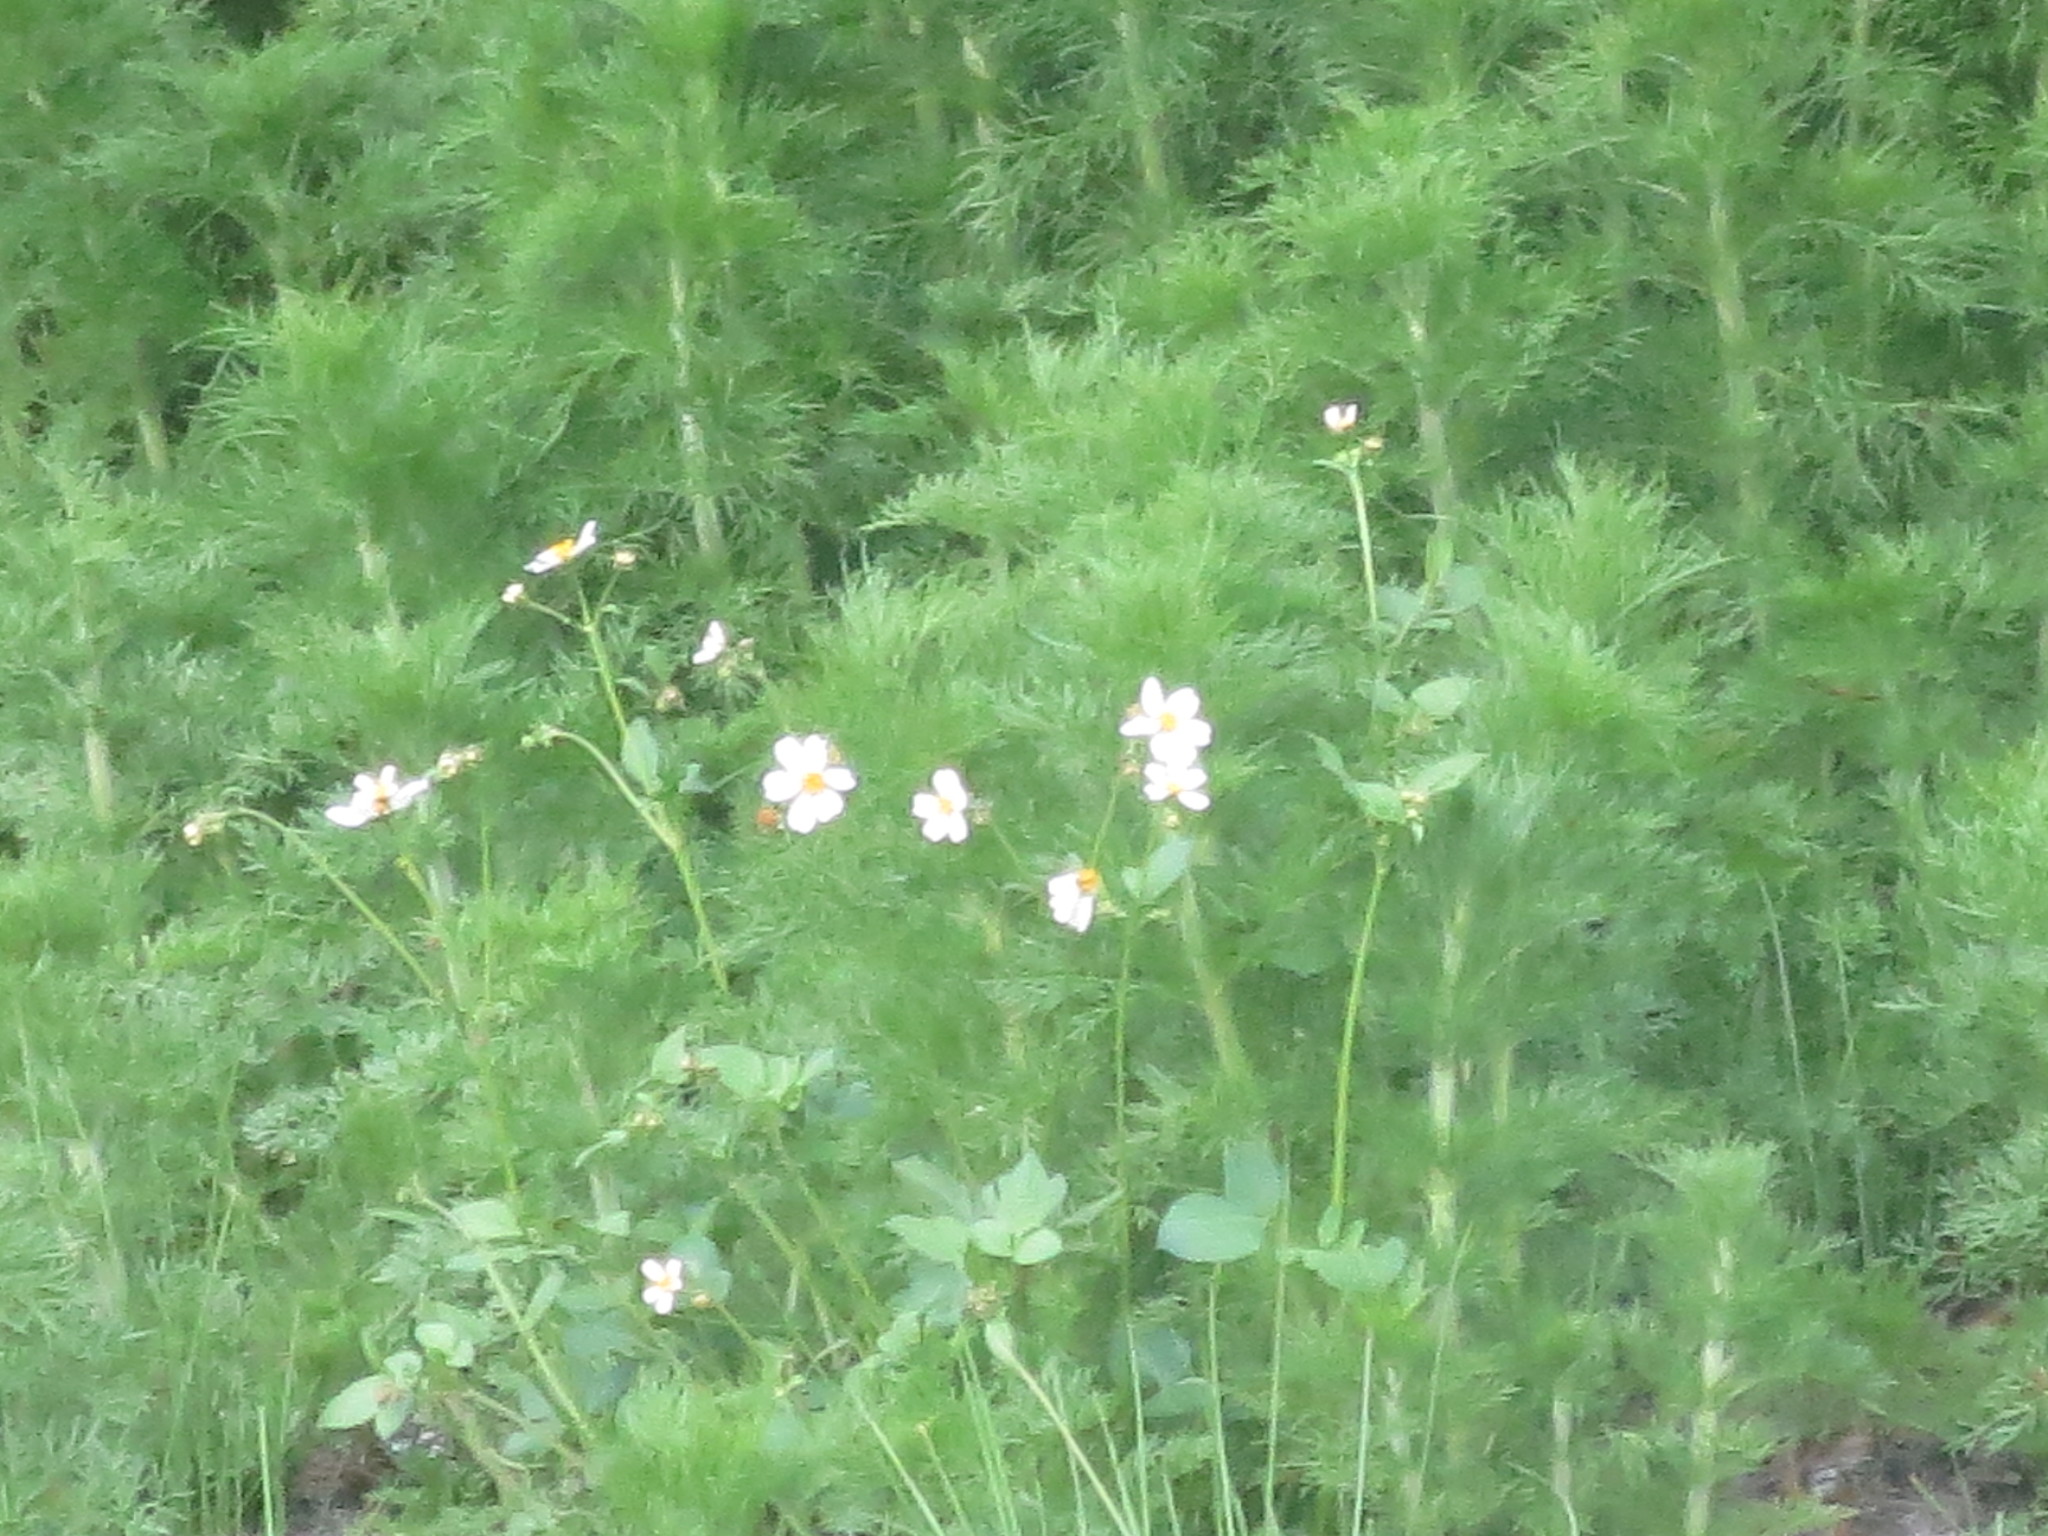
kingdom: Plantae
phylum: Tracheophyta
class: Magnoliopsida
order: Asterales
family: Asteraceae
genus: Bidens
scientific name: Bidens alba
